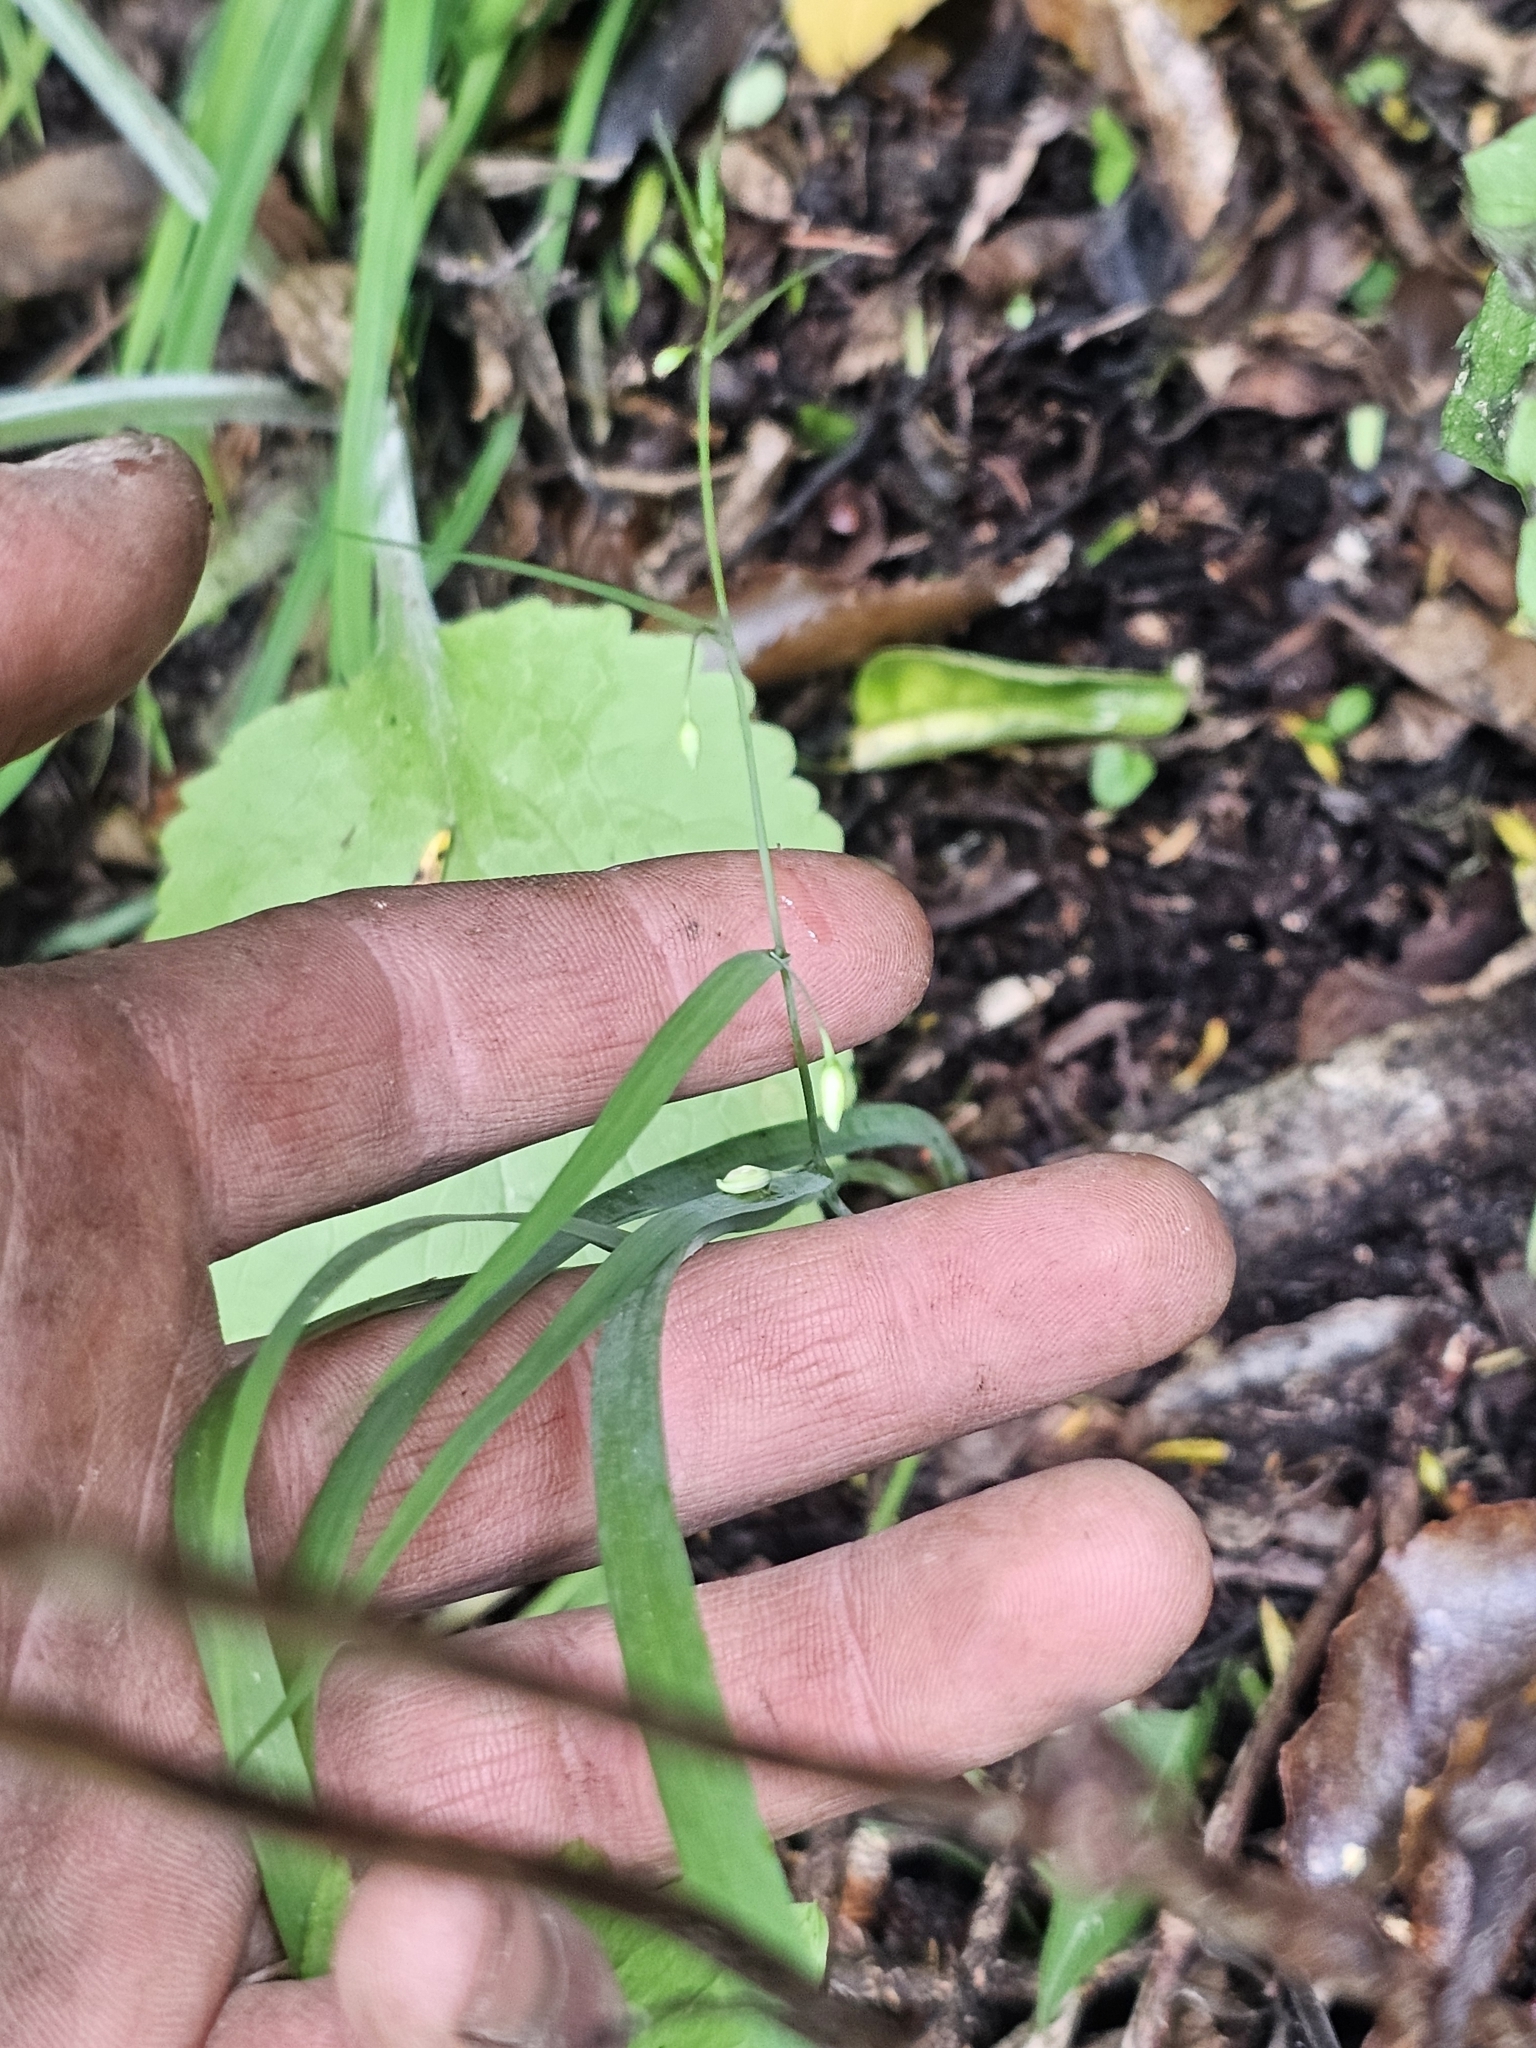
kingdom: Plantae
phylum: Tracheophyta
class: Liliopsida
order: Asparagales
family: Asparagaceae
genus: Arthropodium
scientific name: Arthropodium candidum
